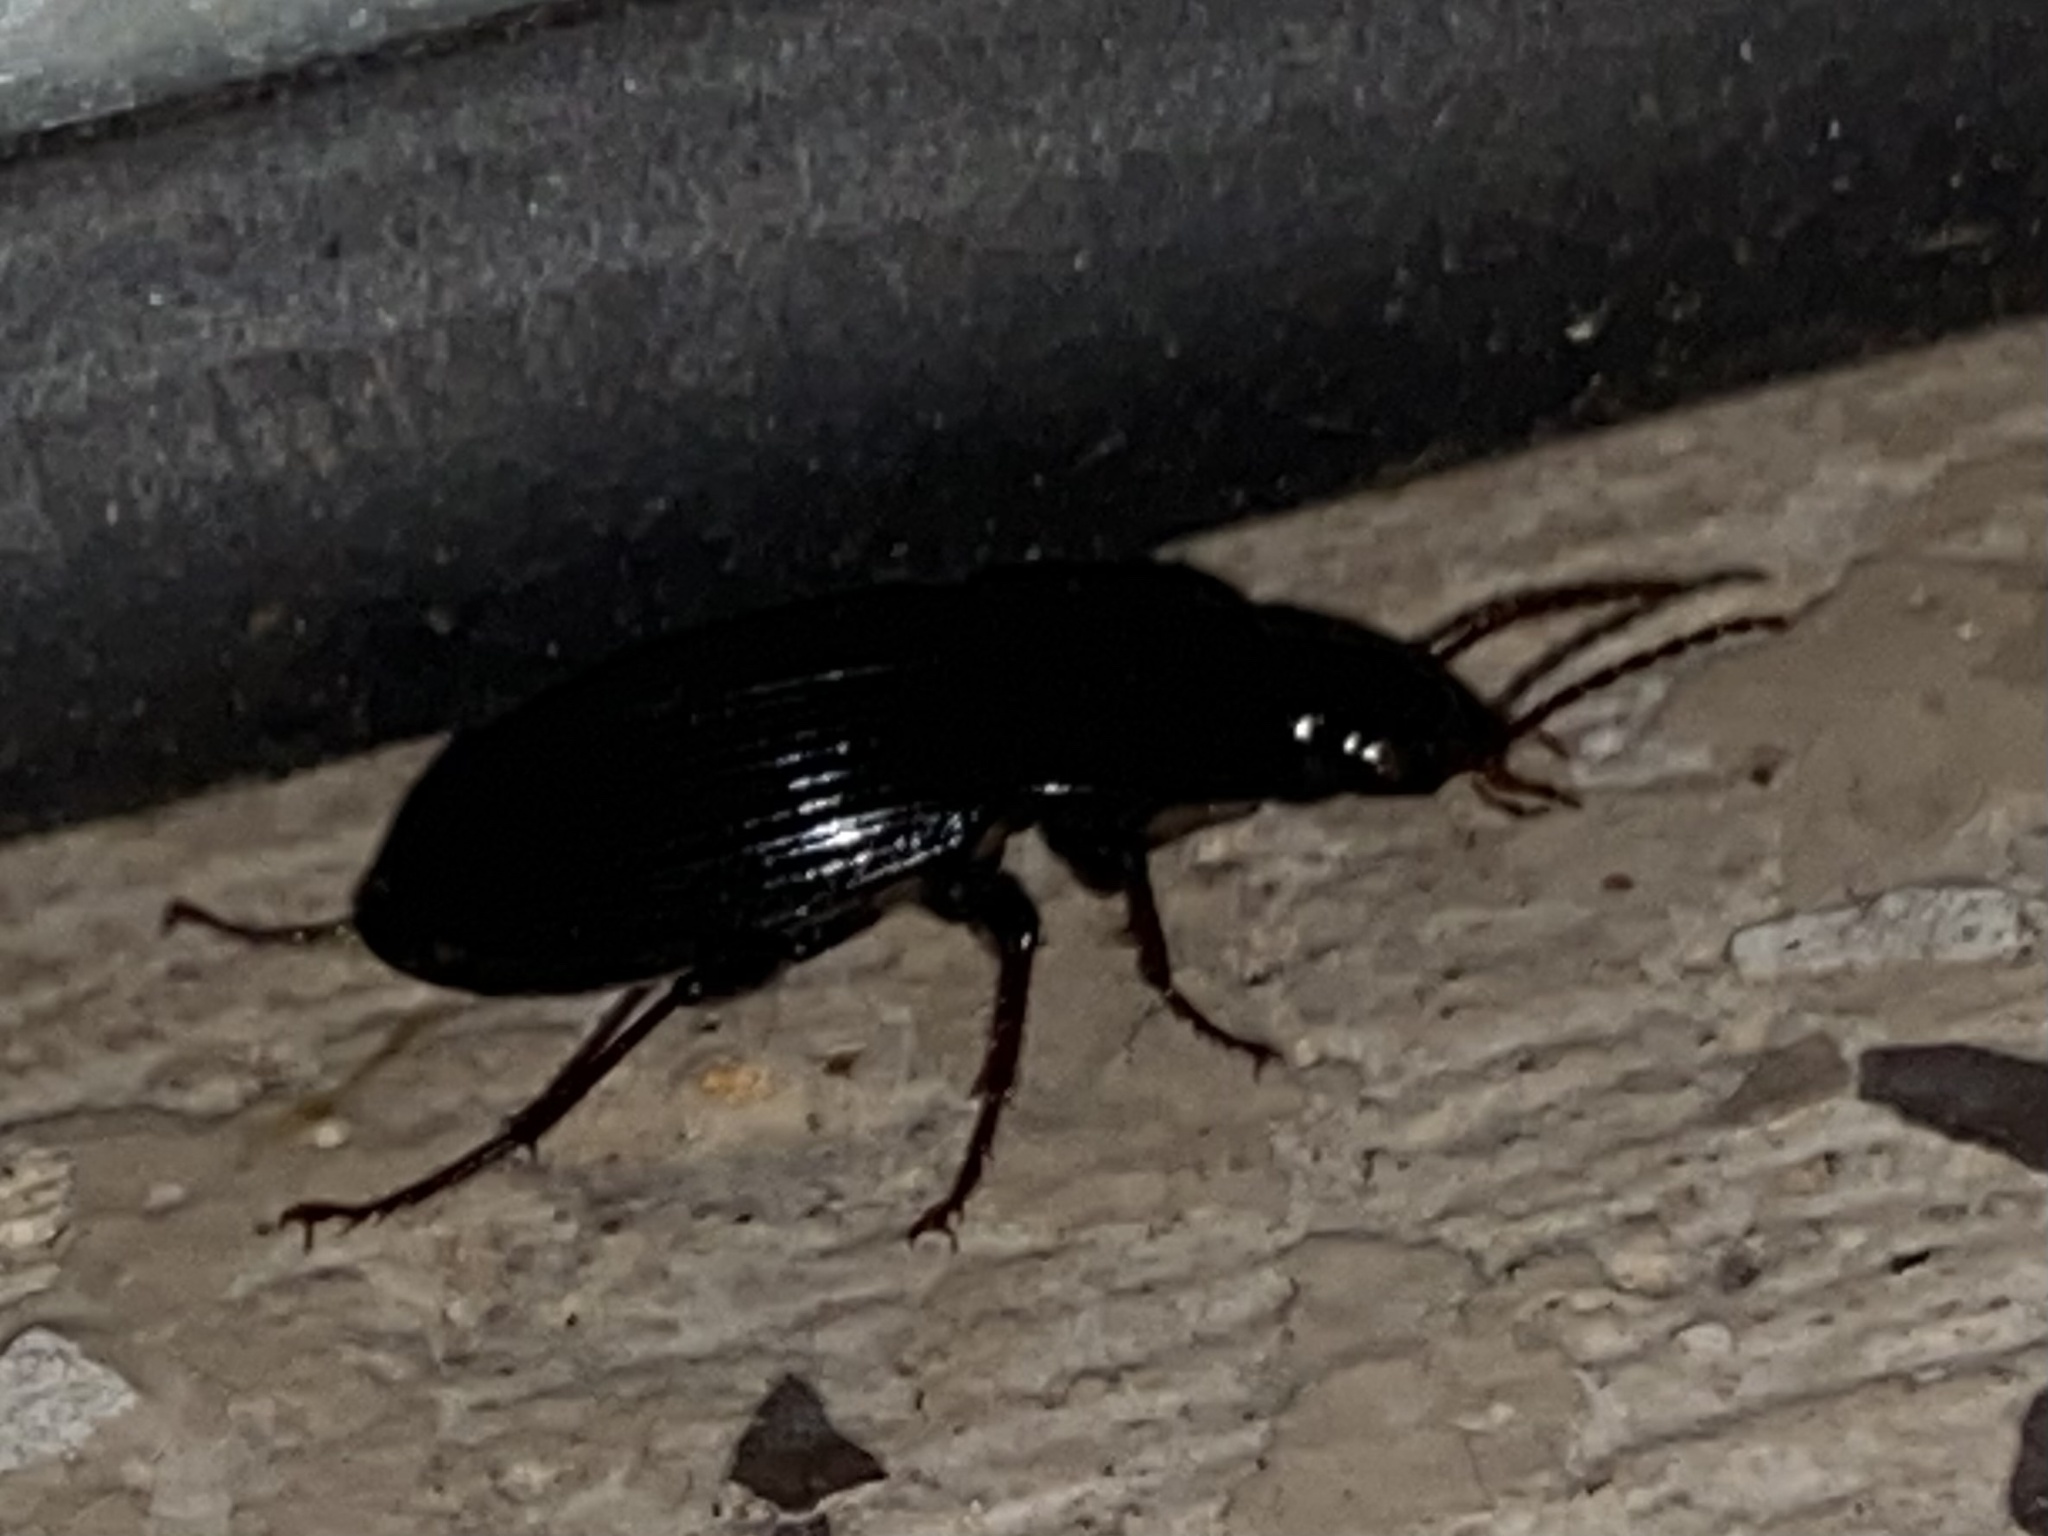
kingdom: Animalia
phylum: Arthropoda
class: Insecta
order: Coleoptera
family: Carabidae
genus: Abacidus
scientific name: Abacidus
